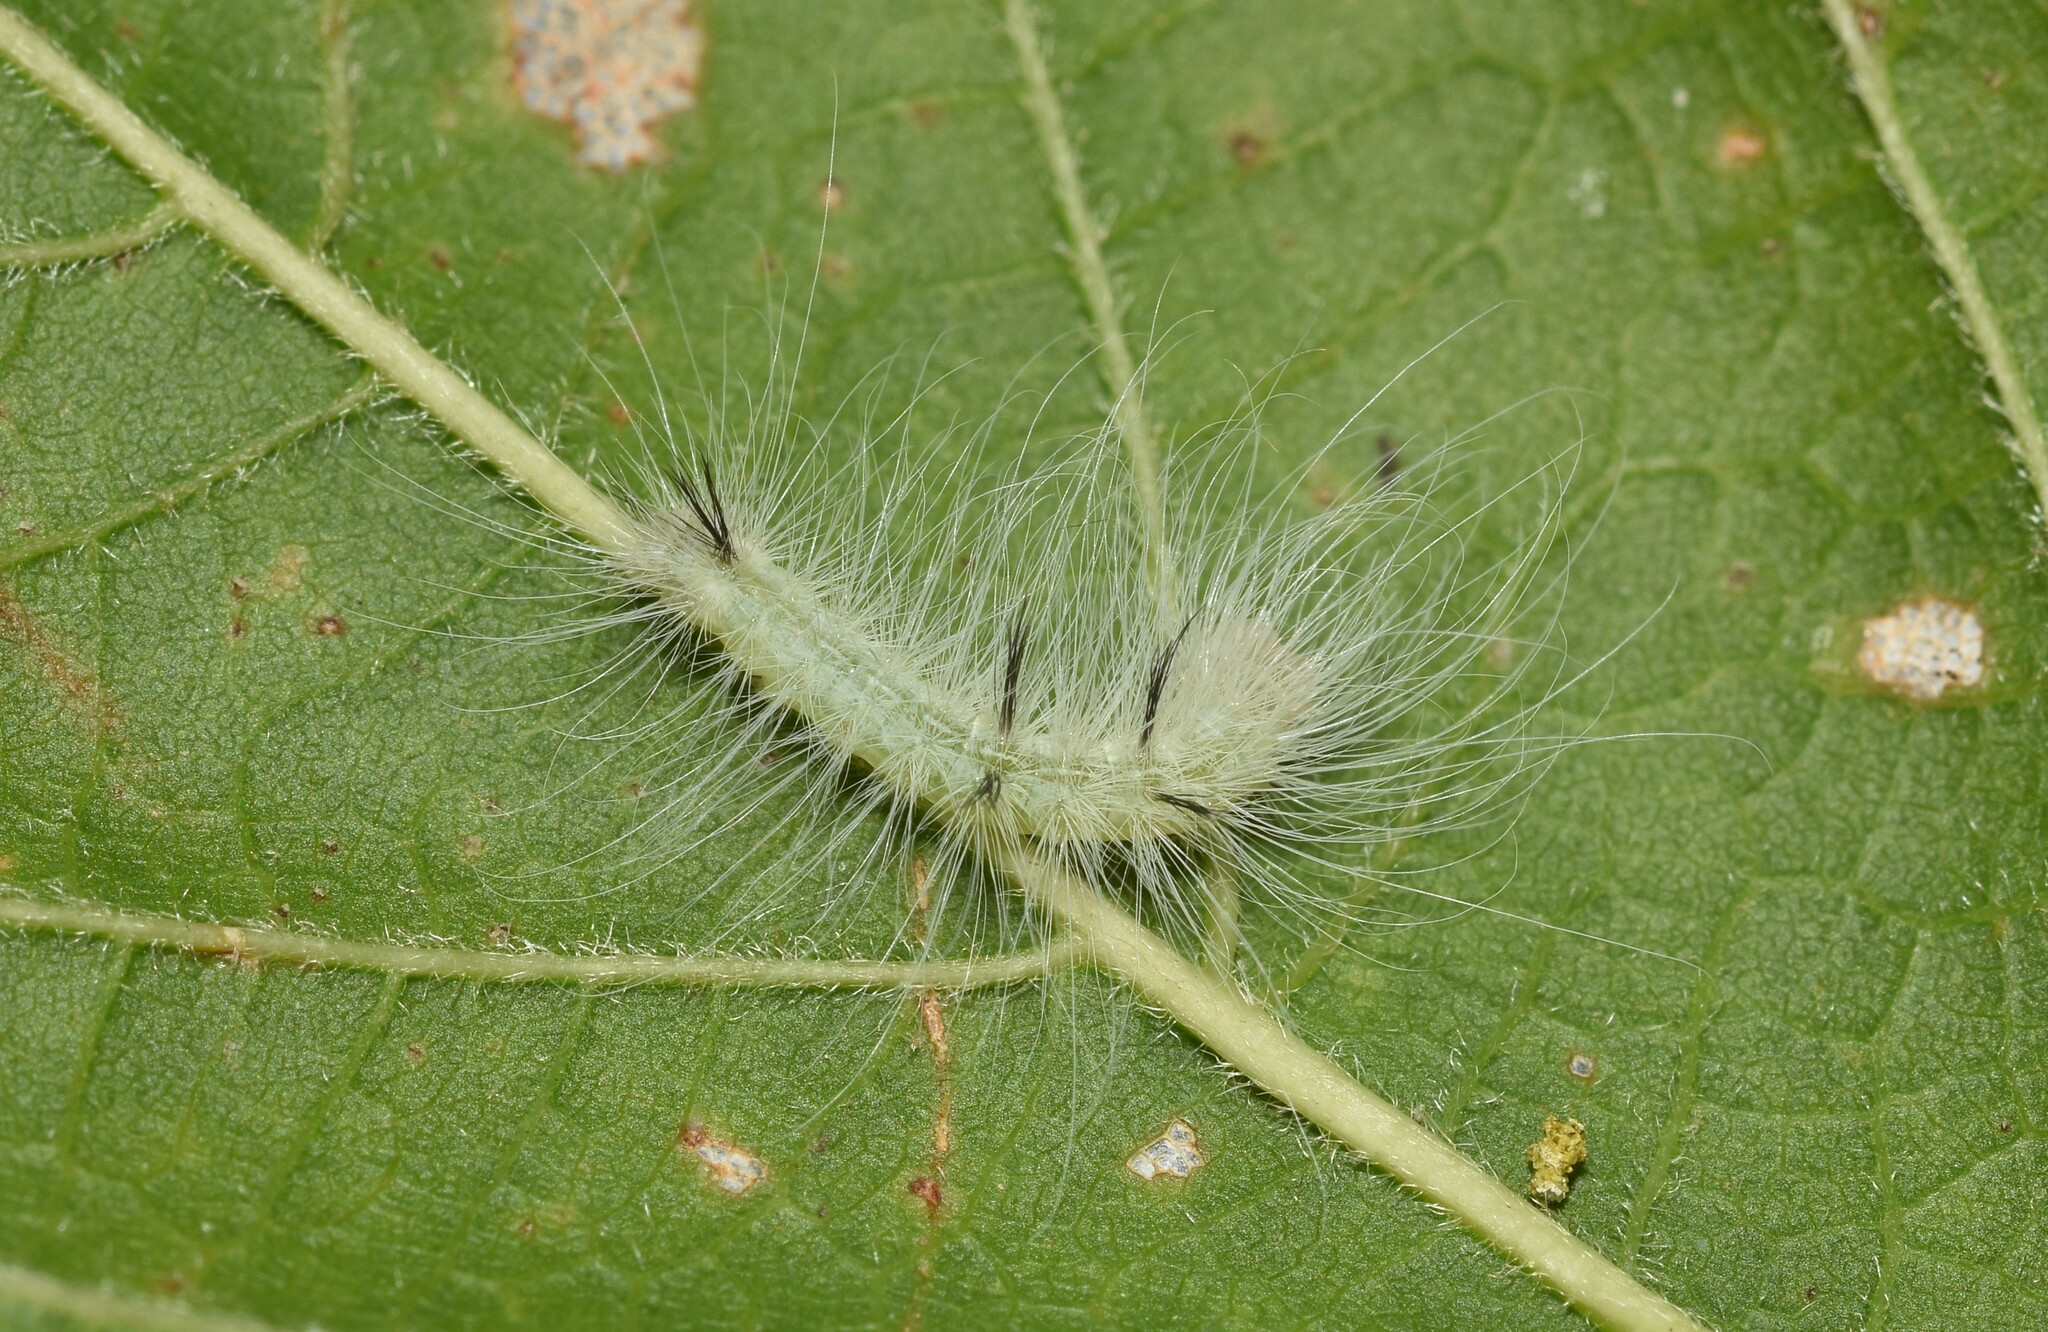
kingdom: Animalia
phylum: Arthropoda
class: Insecta
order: Lepidoptera
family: Noctuidae
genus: Acronicta
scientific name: Acronicta americana
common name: American dagger
